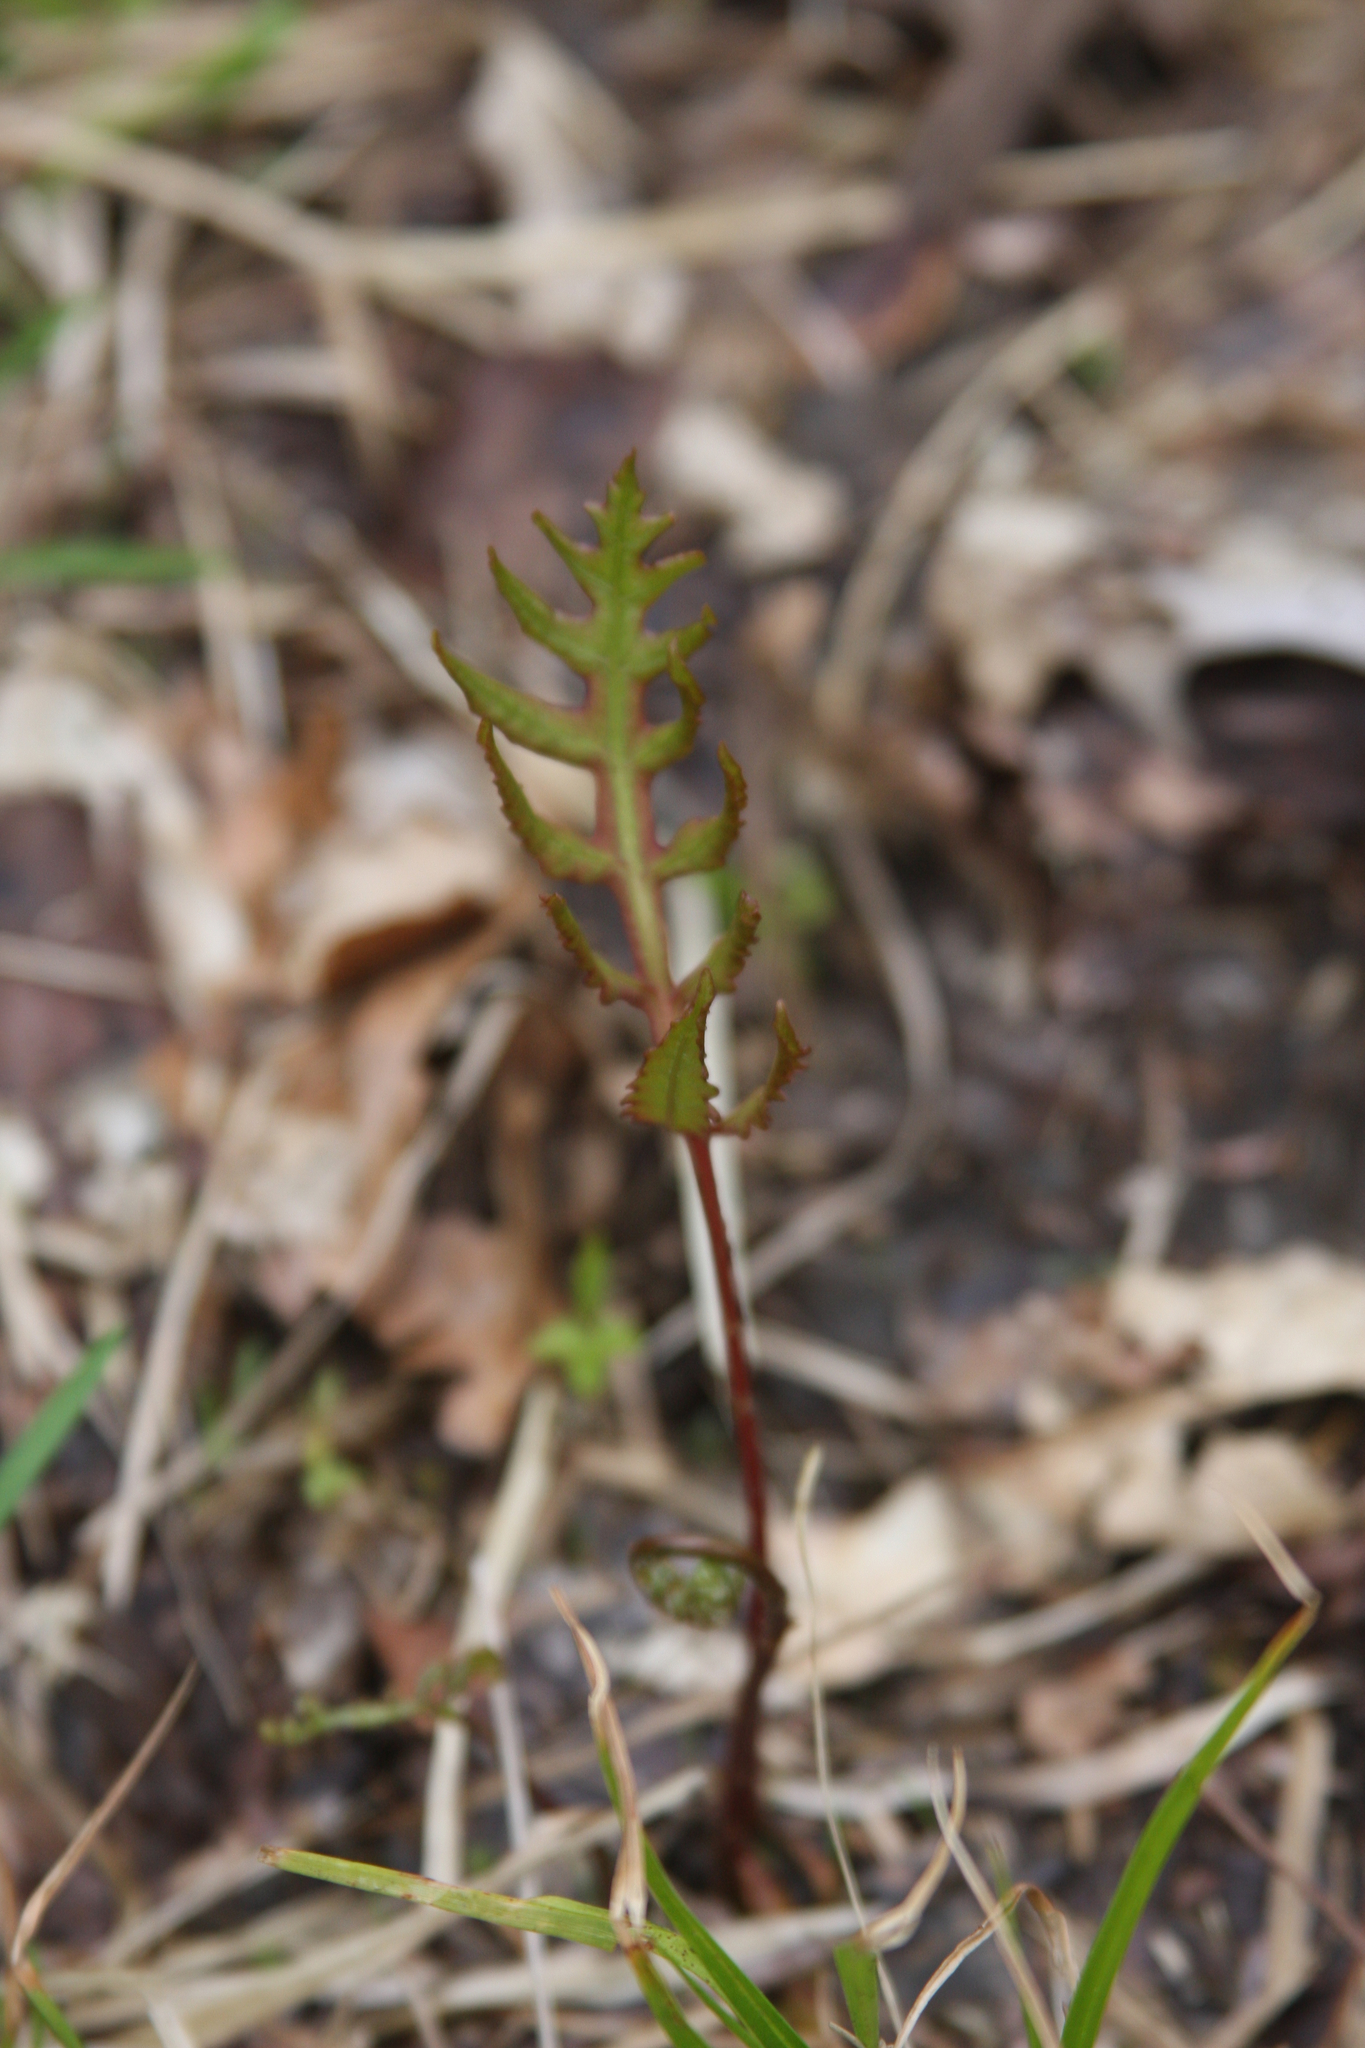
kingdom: Plantae
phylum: Tracheophyta
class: Polypodiopsida
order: Polypodiales
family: Onocleaceae
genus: Onoclea
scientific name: Onoclea sensibilis
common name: Sensitive fern
